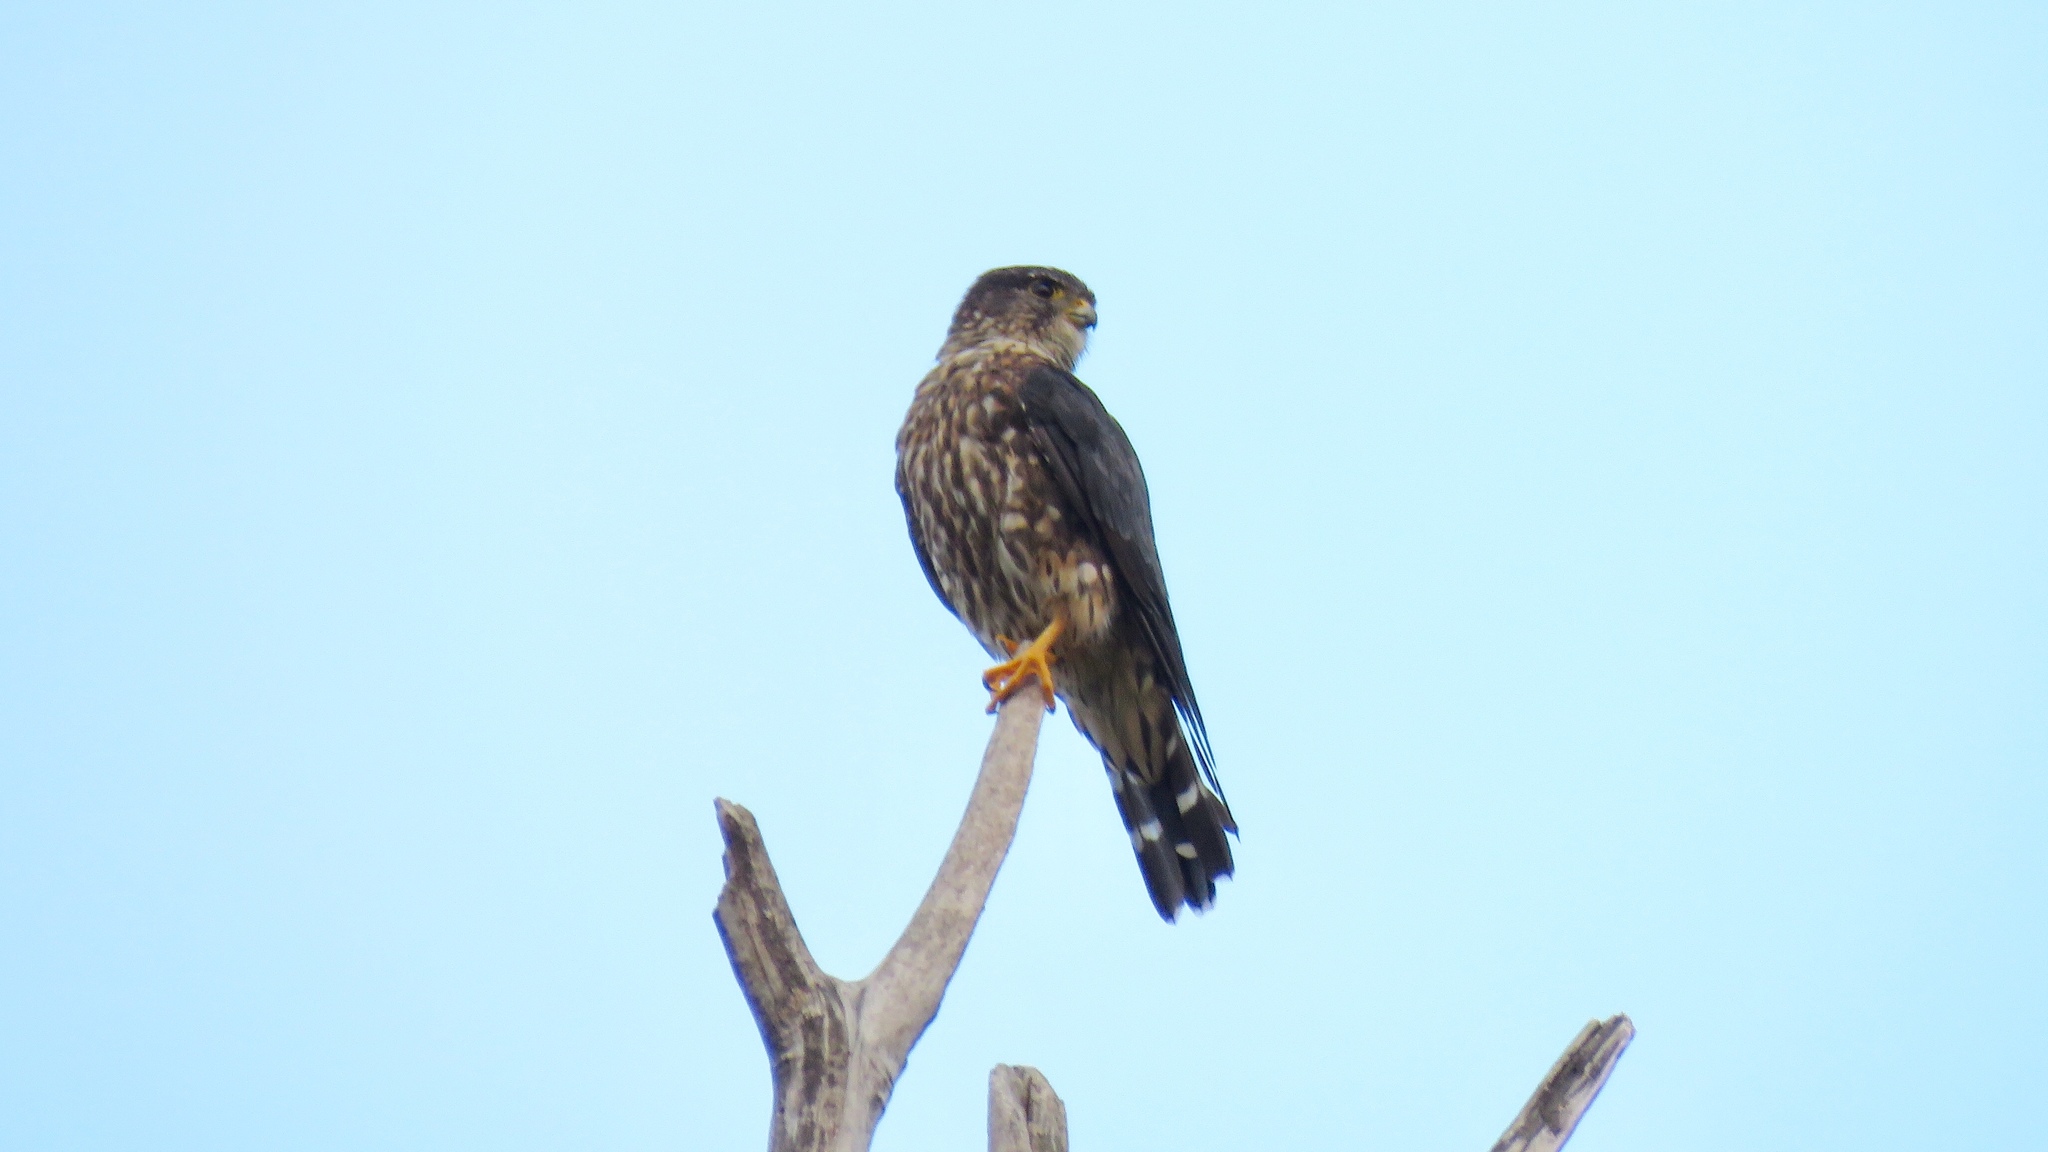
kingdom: Animalia
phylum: Chordata
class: Aves
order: Falconiformes
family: Falconidae
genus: Falco
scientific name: Falco columbarius
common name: Merlin
